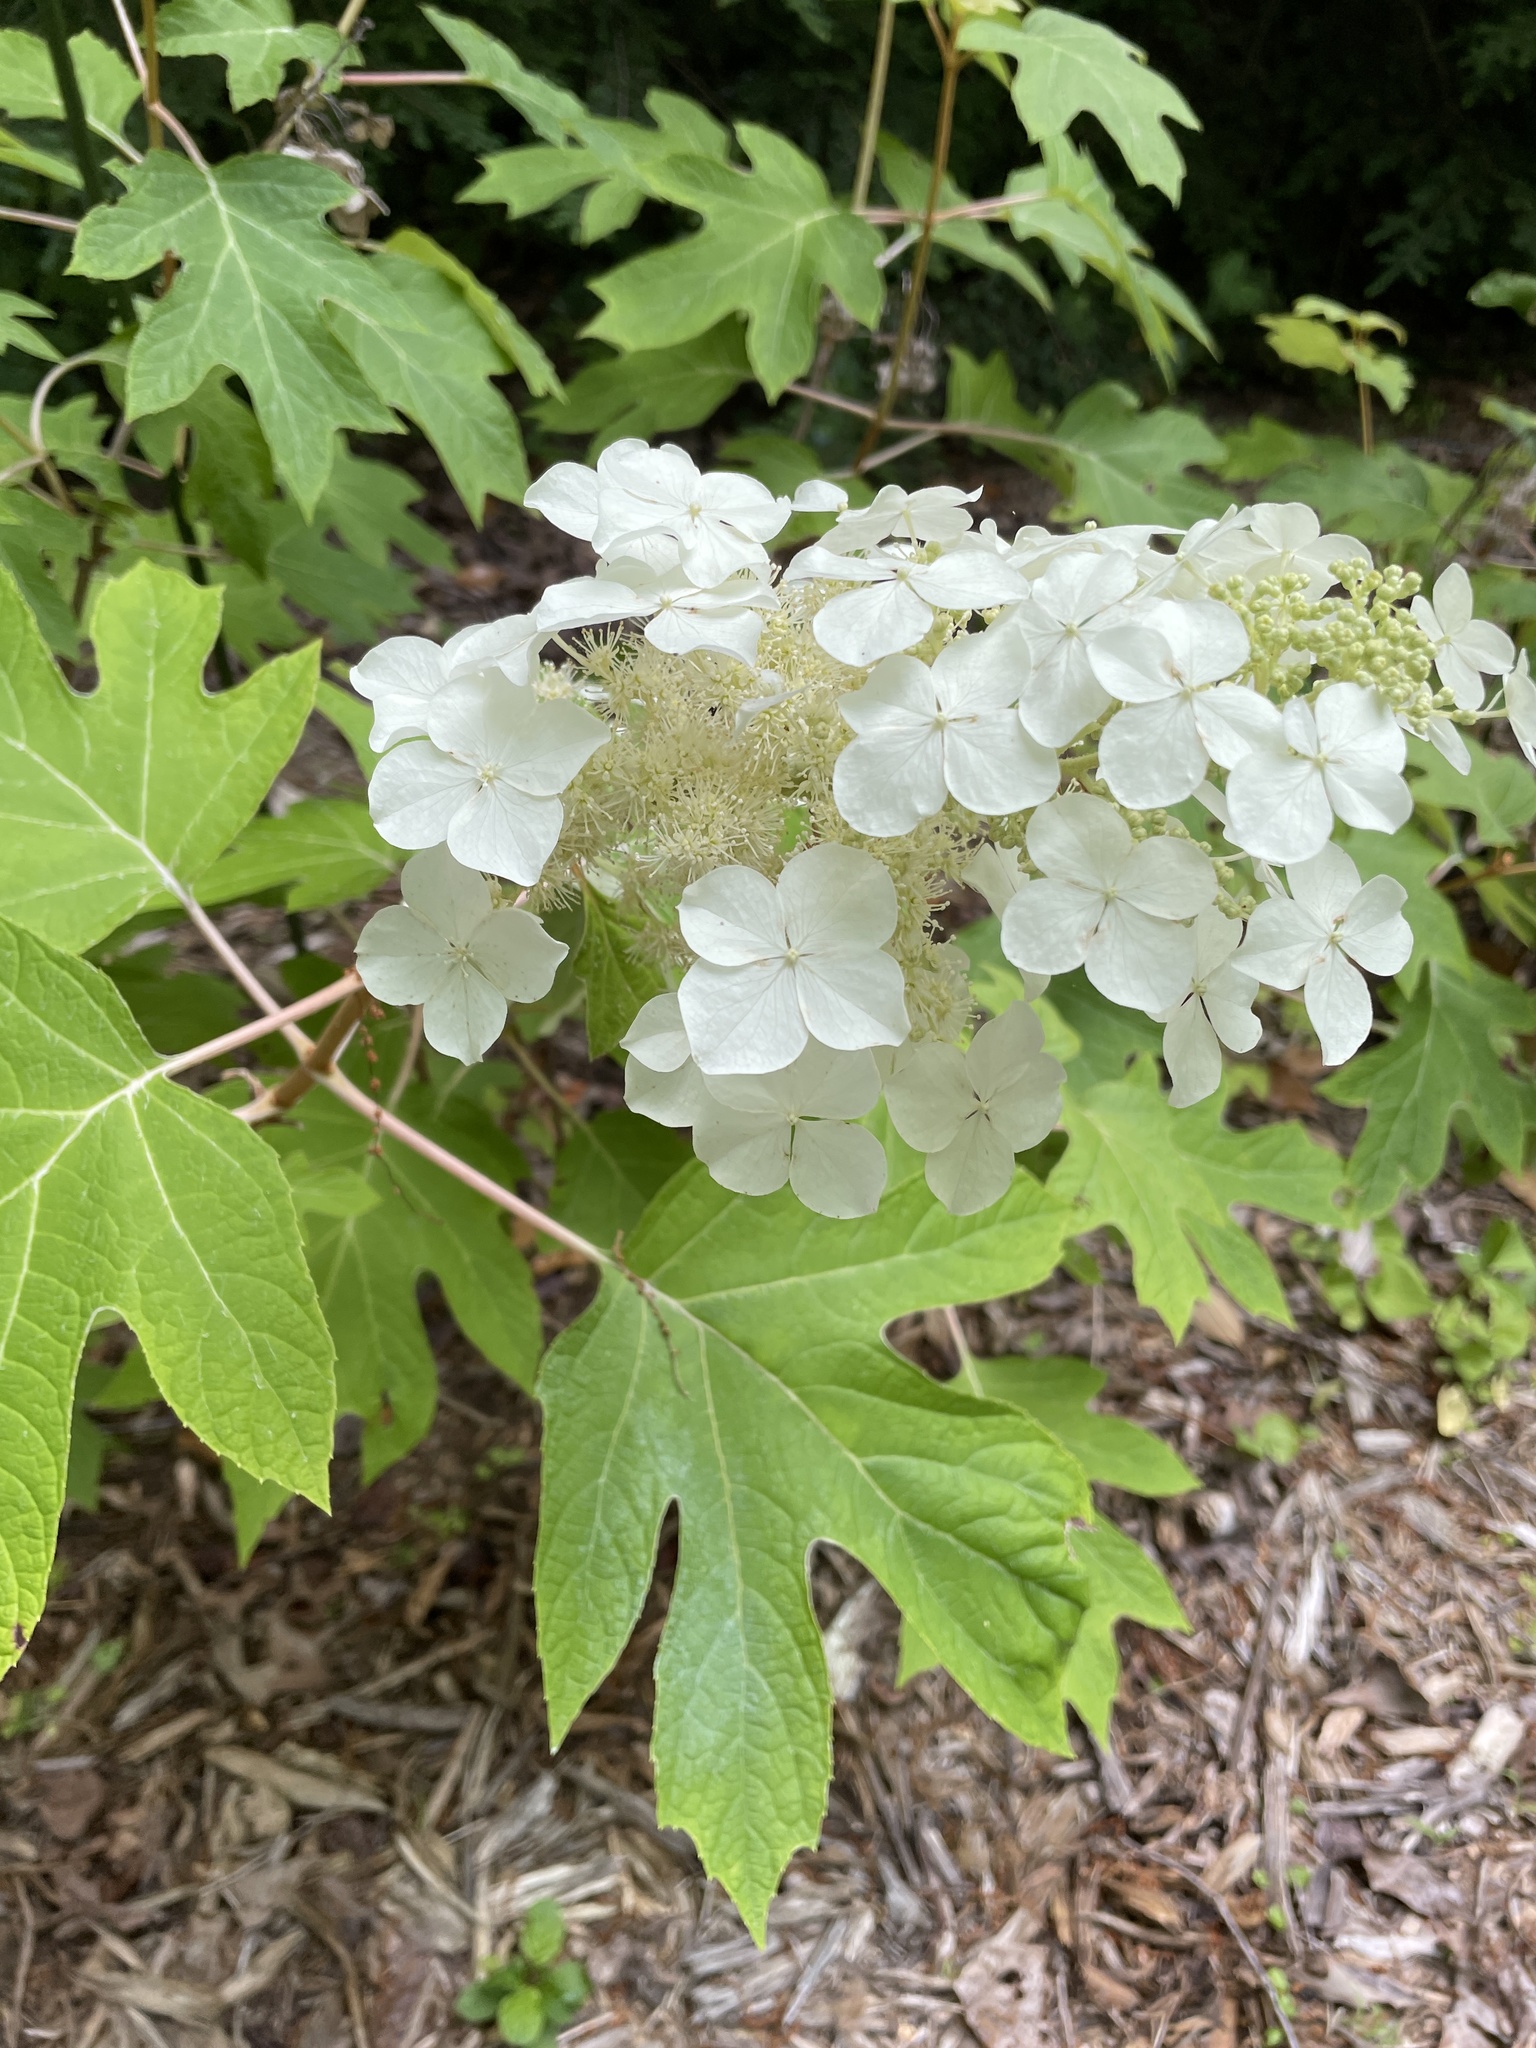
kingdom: Plantae
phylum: Tracheophyta
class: Magnoliopsida
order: Cornales
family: Hydrangeaceae
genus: Hydrangea
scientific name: Hydrangea quercifolia
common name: Oak-leaf hydrangea
